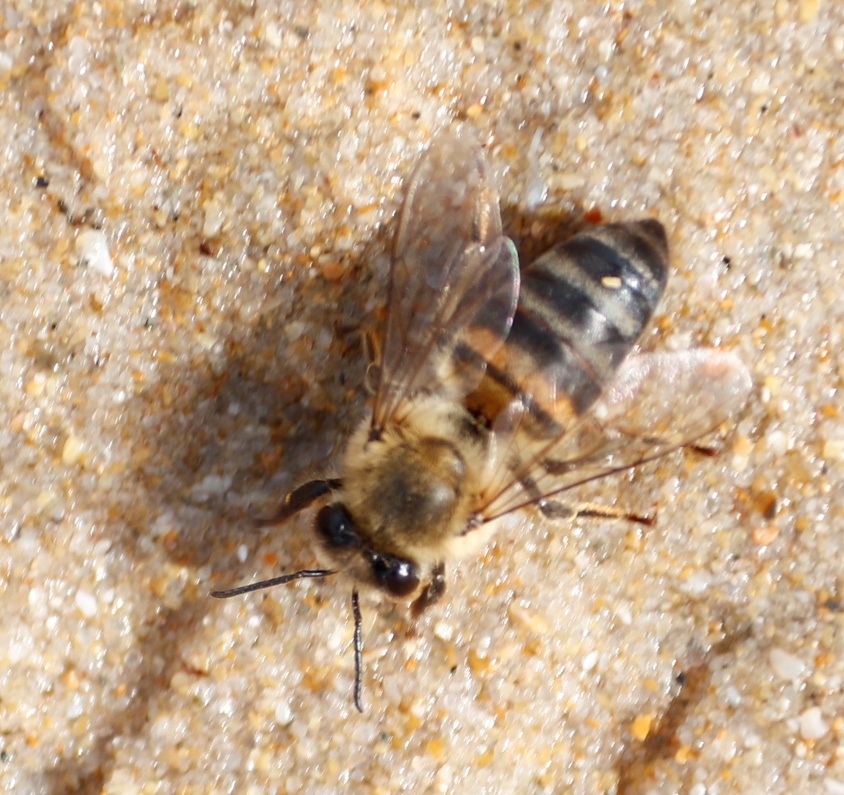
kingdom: Animalia
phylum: Arthropoda
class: Insecta
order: Hymenoptera
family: Apidae
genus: Apis
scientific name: Apis mellifera
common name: Honey bee
